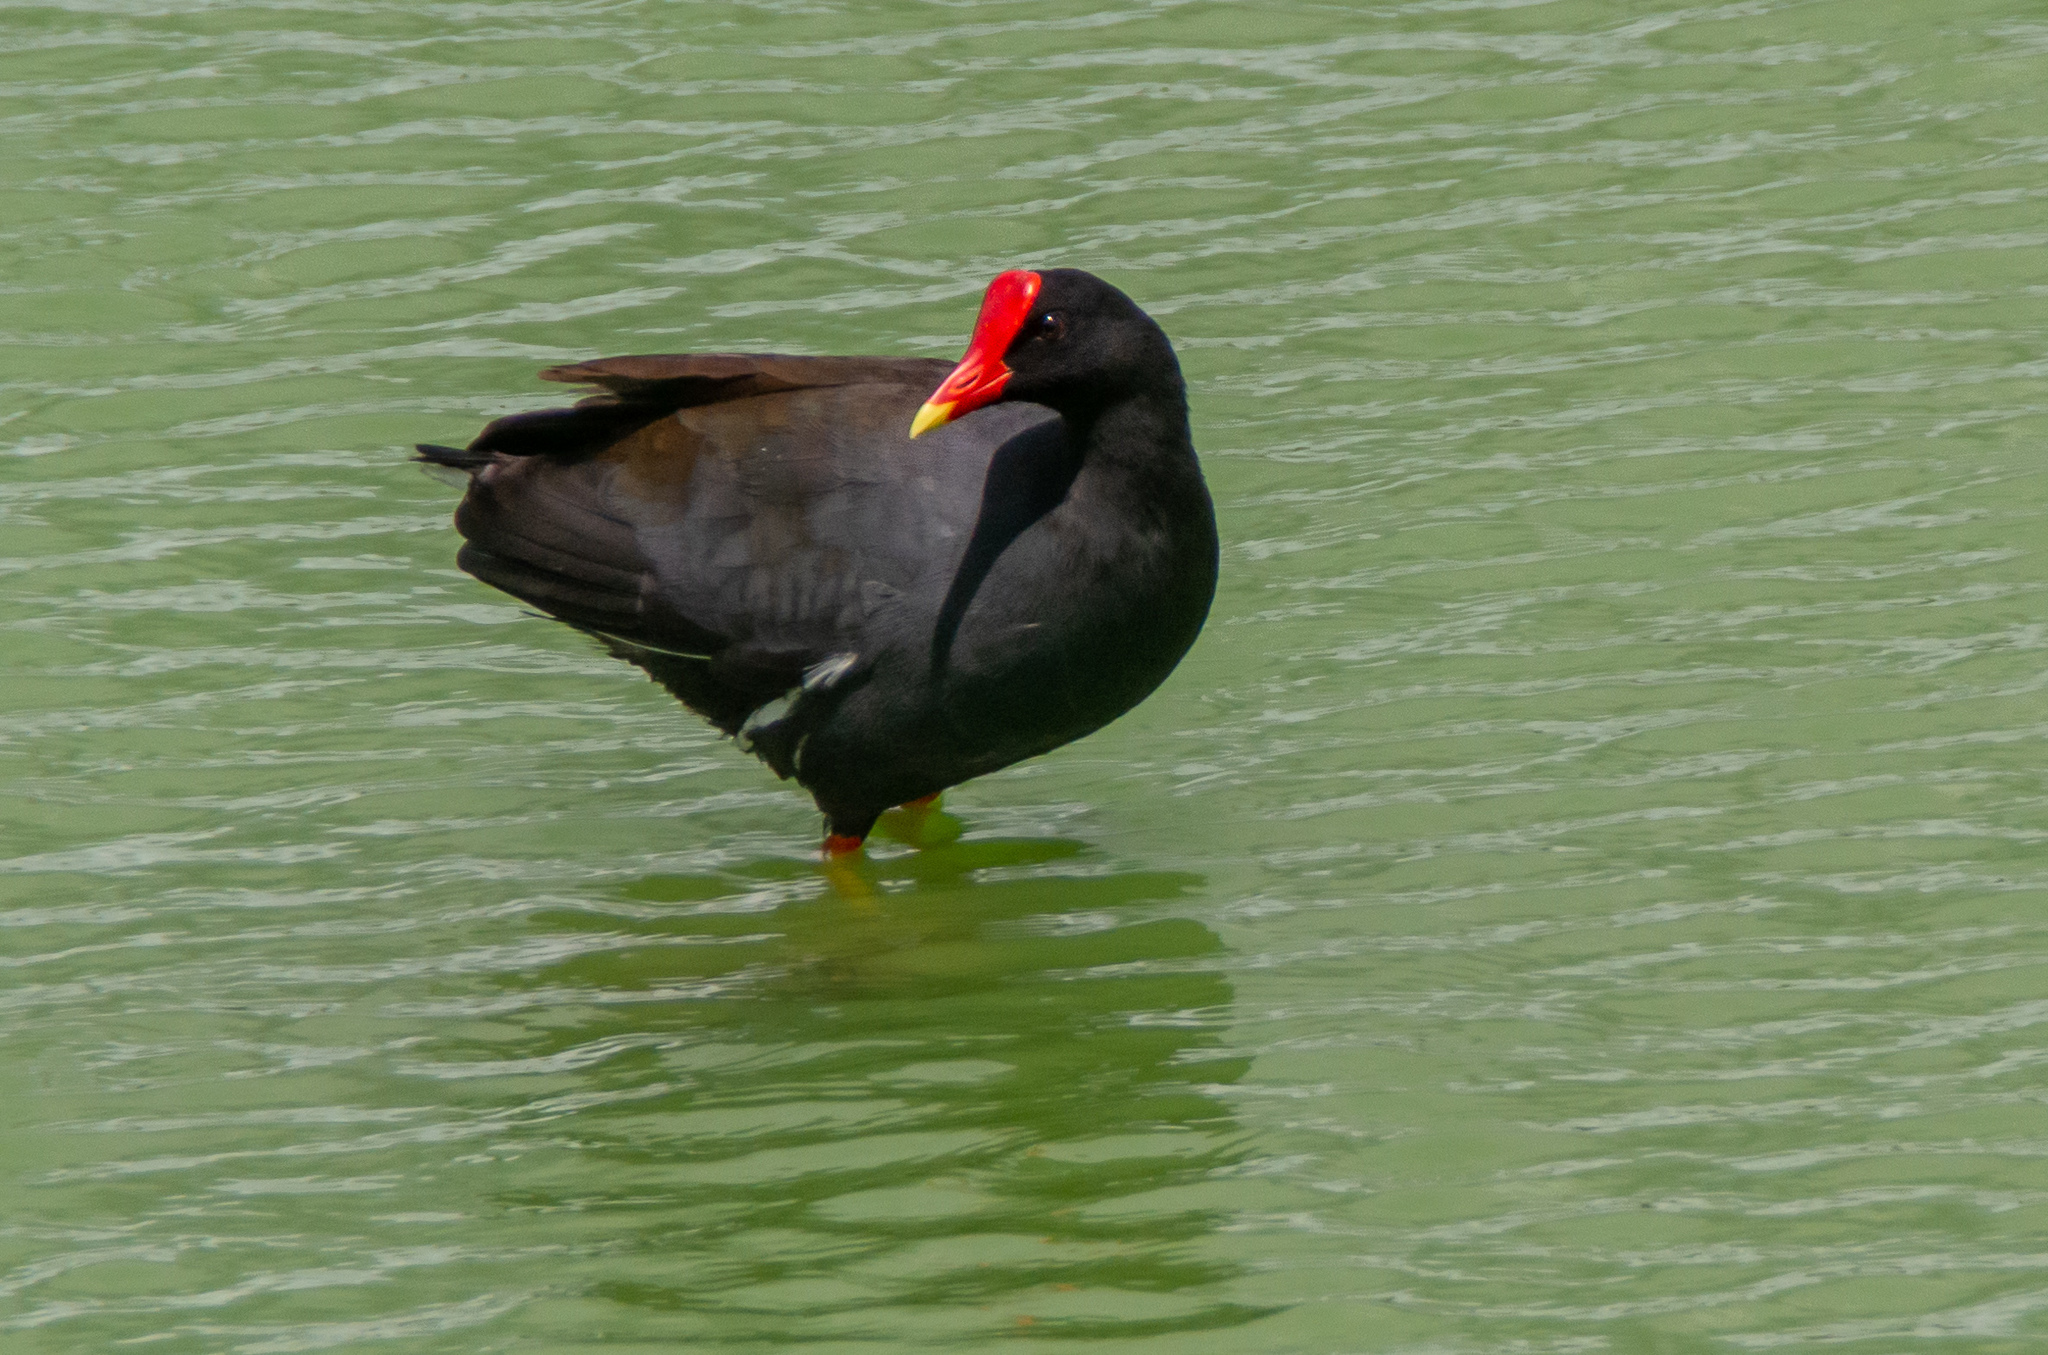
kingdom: Animalia
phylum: Chordata
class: Aves
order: Gruiformes
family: Rallidae
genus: Gallinula
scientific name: Gallinula chloropus
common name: Common moorhen
